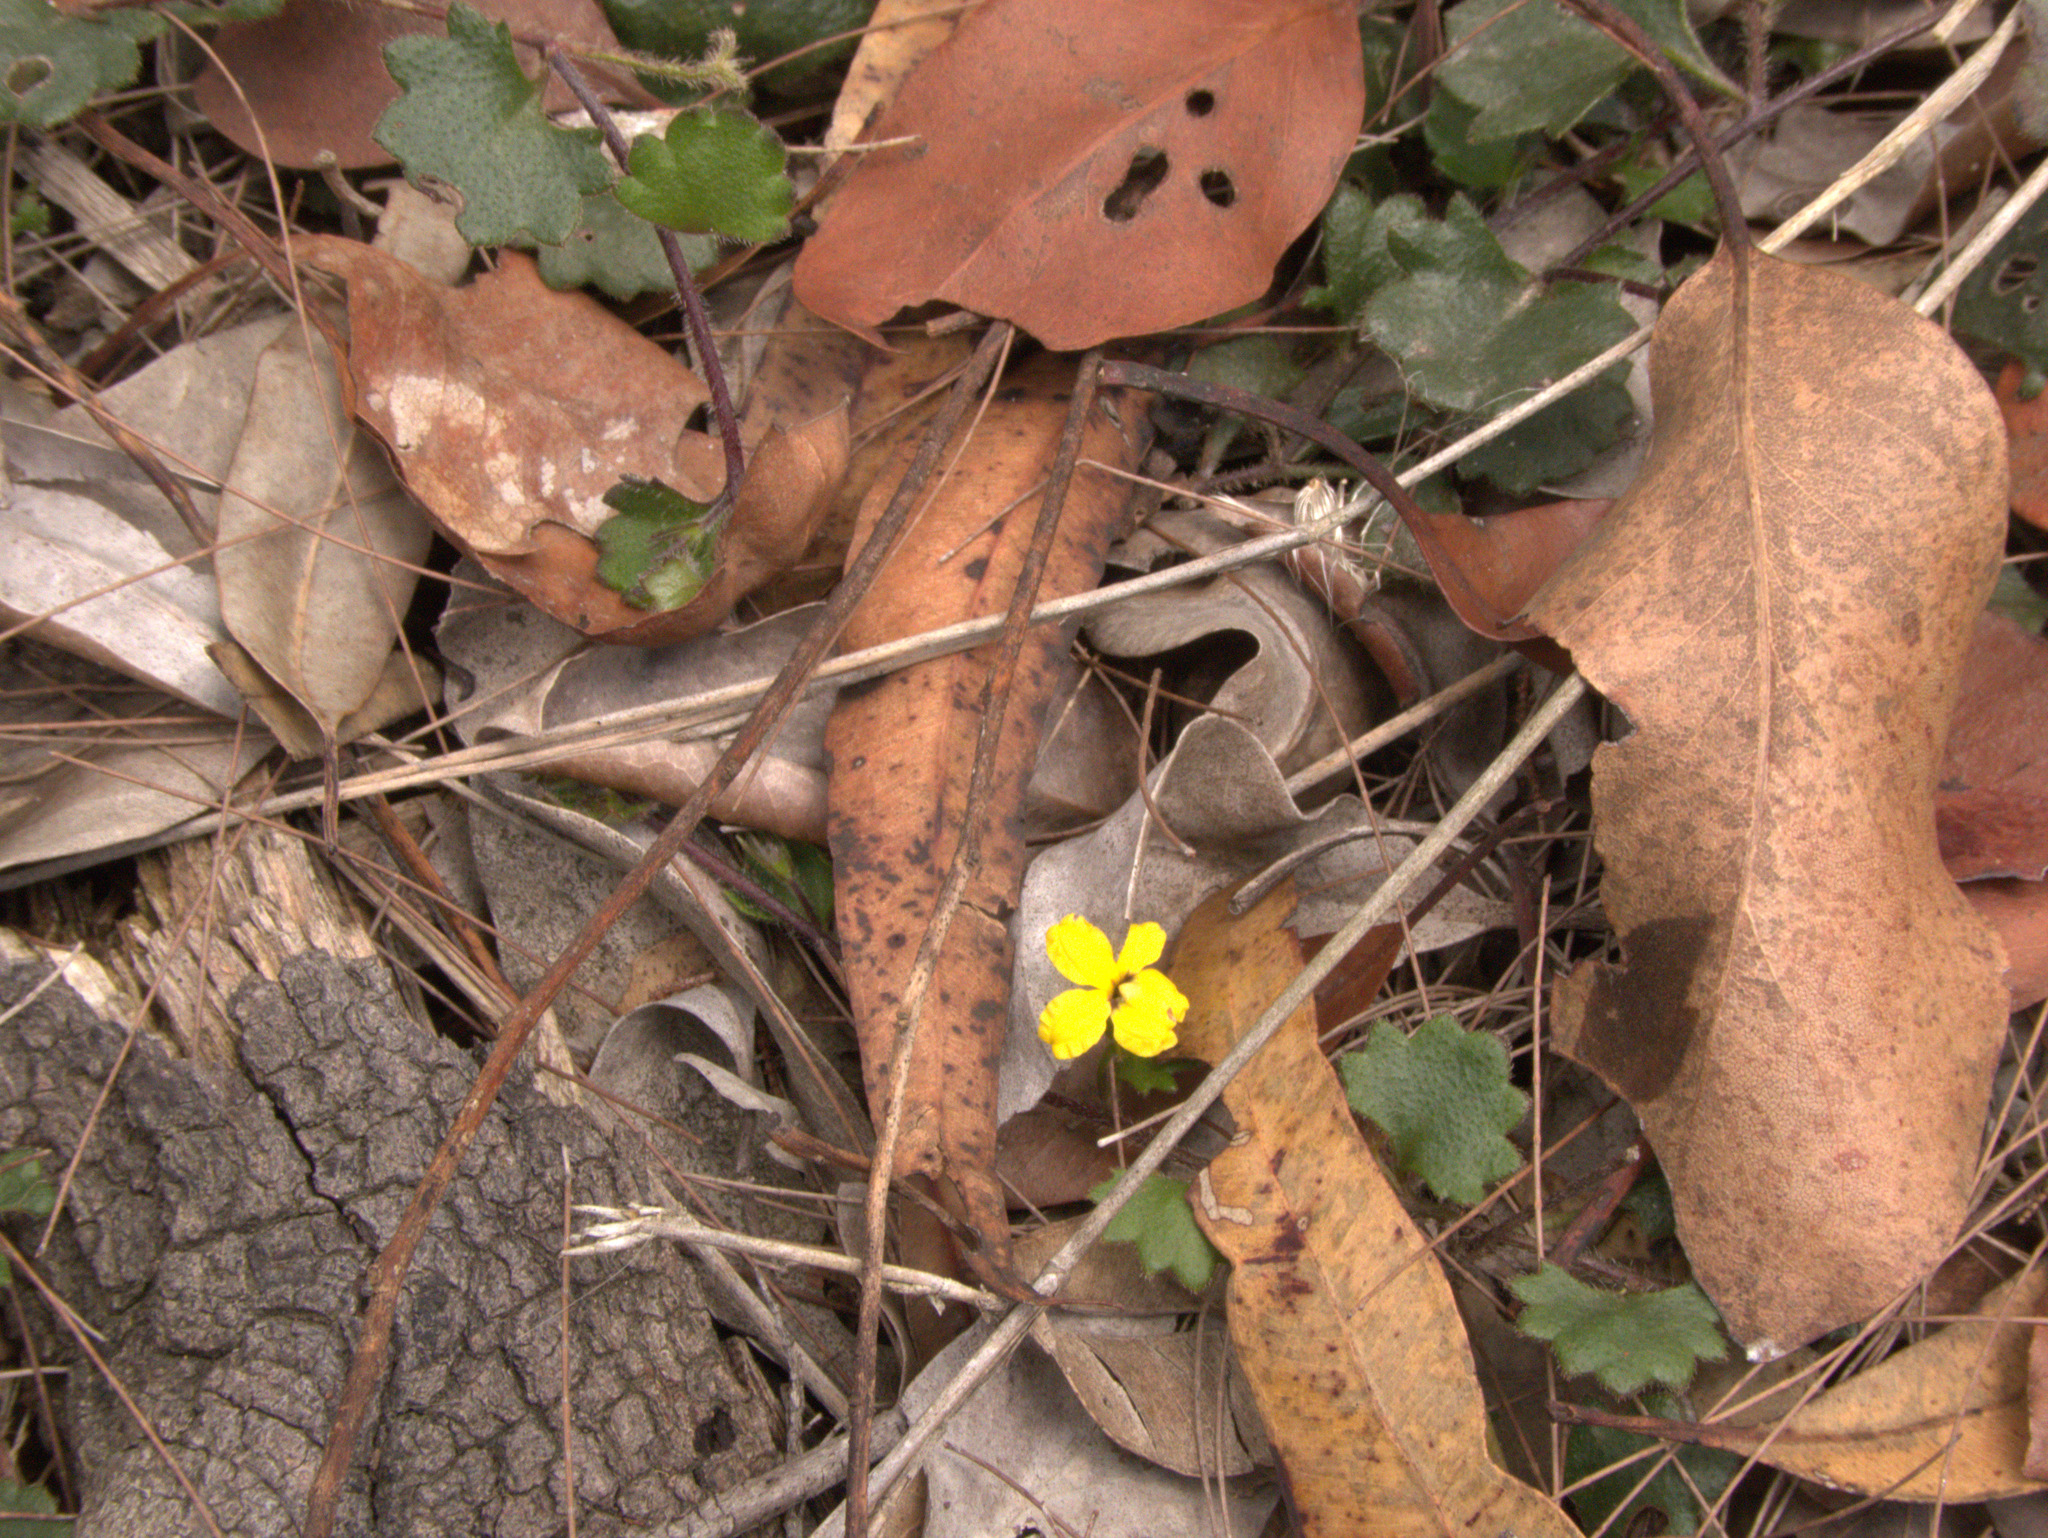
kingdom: Plantae
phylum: Tracheophyta
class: Magnoliopsida
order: Asterales
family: Goodeniaceae
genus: Goodenia
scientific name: Goodenia rotundifolia
